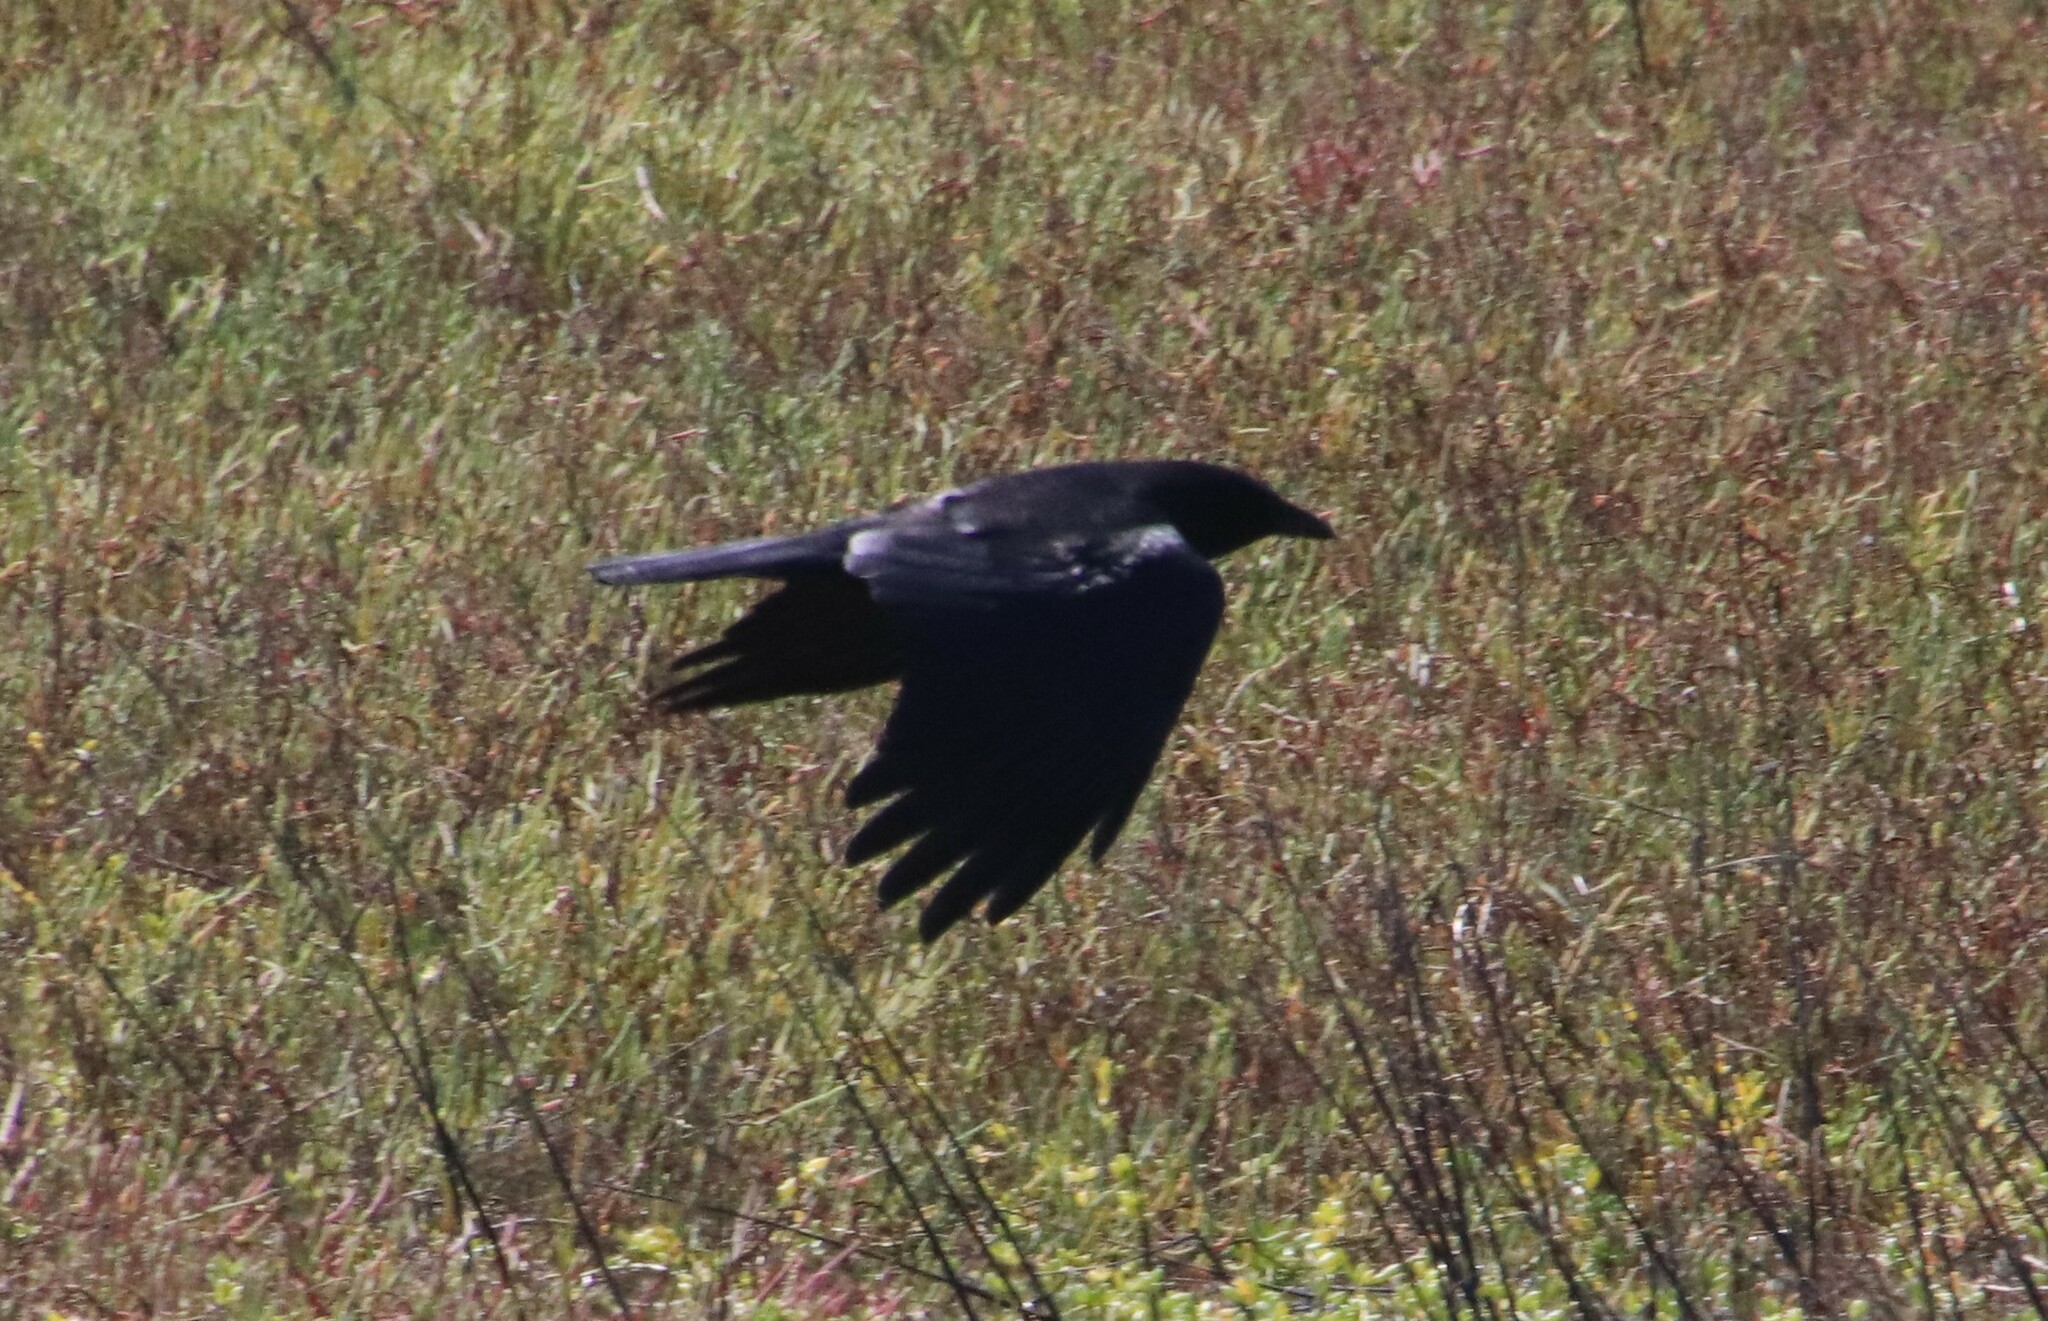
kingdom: Animalia
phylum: Chordata
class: Aves
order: Passeriformes
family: Corvidae
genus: Corvus
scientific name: Corvus brachyrhynchos
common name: American crow
